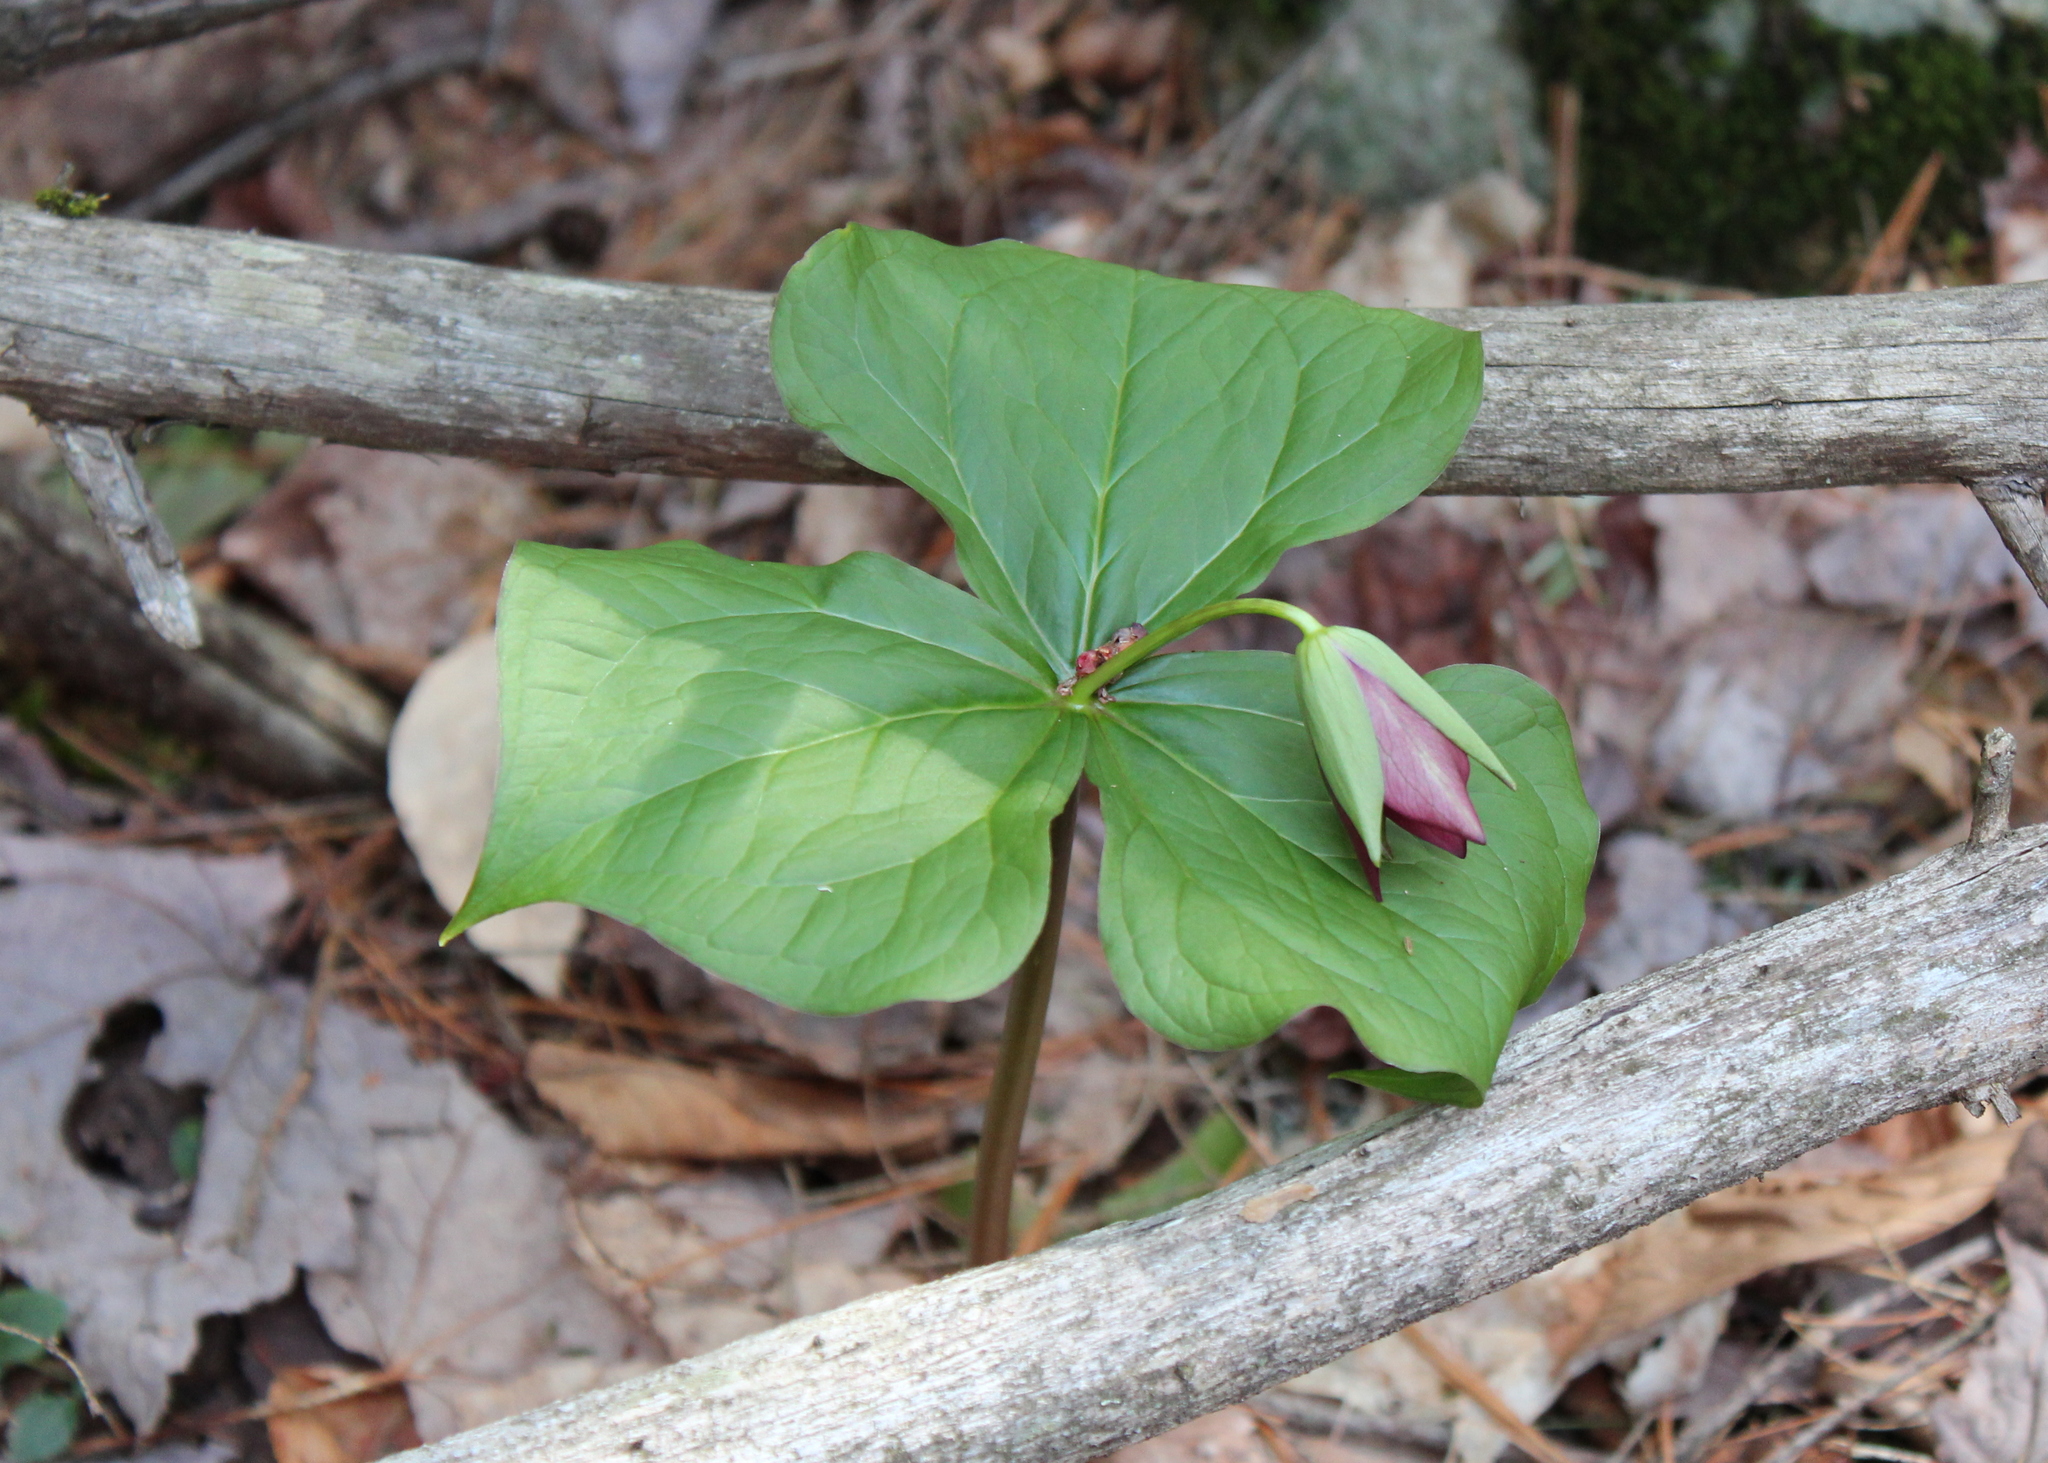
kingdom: Plantae
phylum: Tracheophyta
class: Liliopsida
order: Liliales
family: Melanthiaceae
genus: Trillium
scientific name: Trillium erectum
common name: Purple trillium
